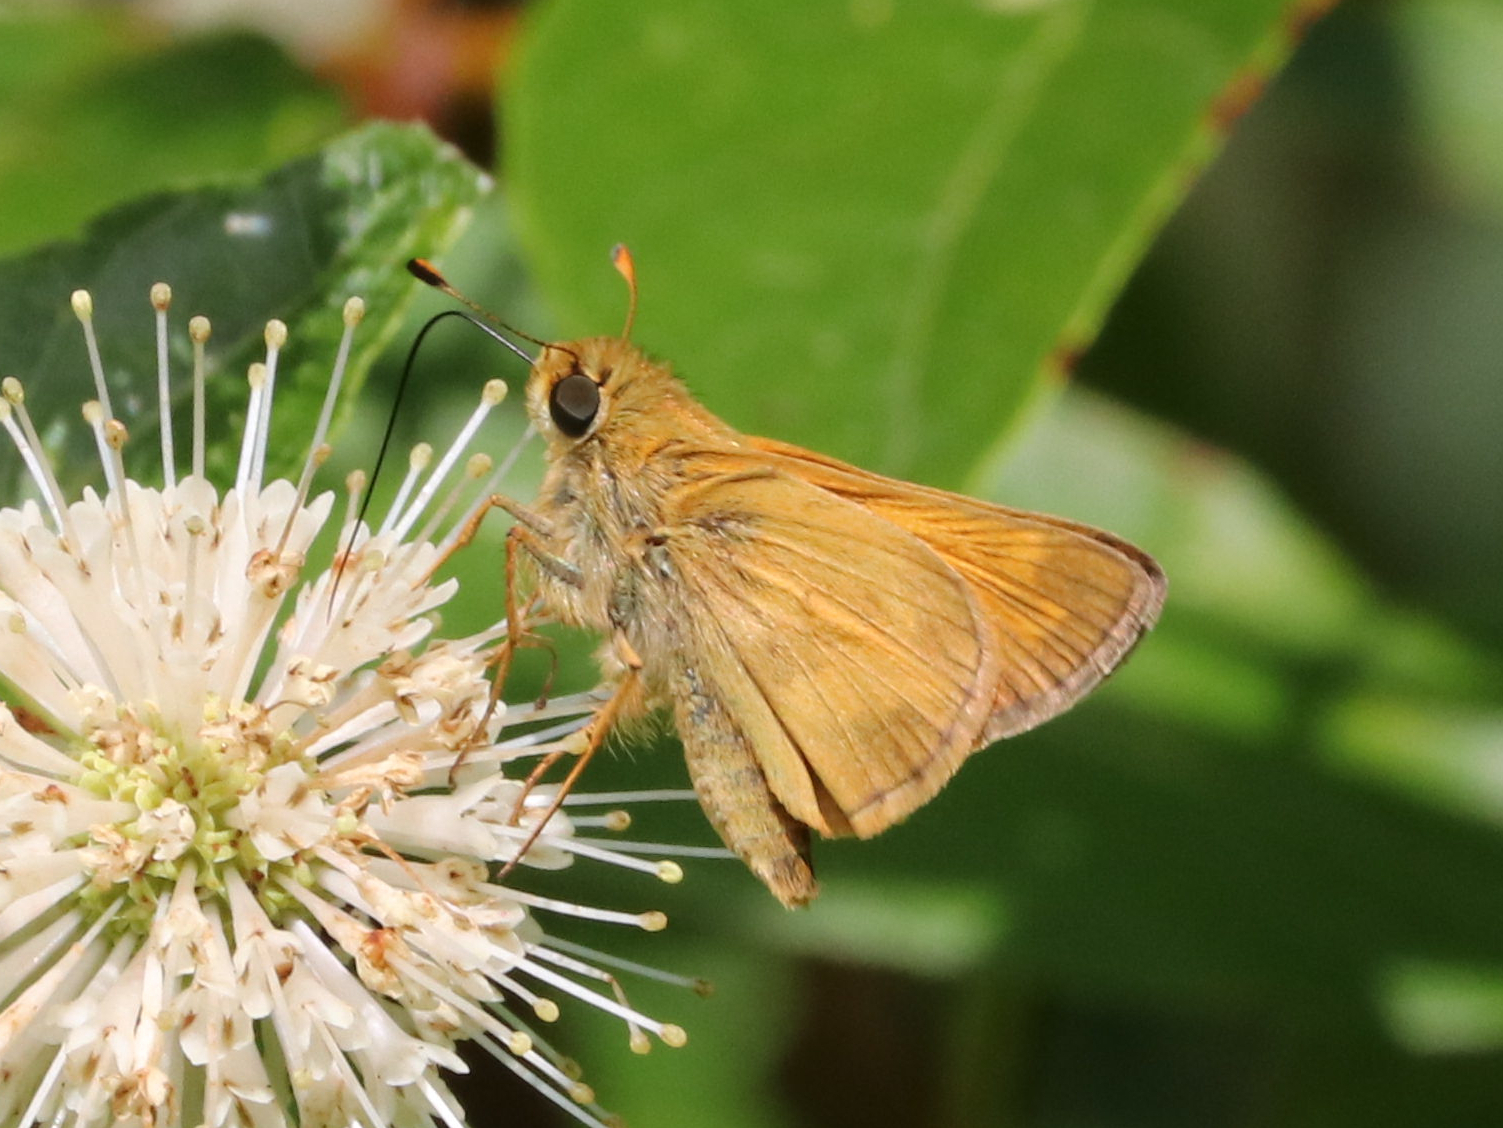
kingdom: Animalia
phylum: Arthropoda
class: Insecta
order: Lepidoptera
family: Hesperiidae
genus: Atalopedes
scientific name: Atalopedes
